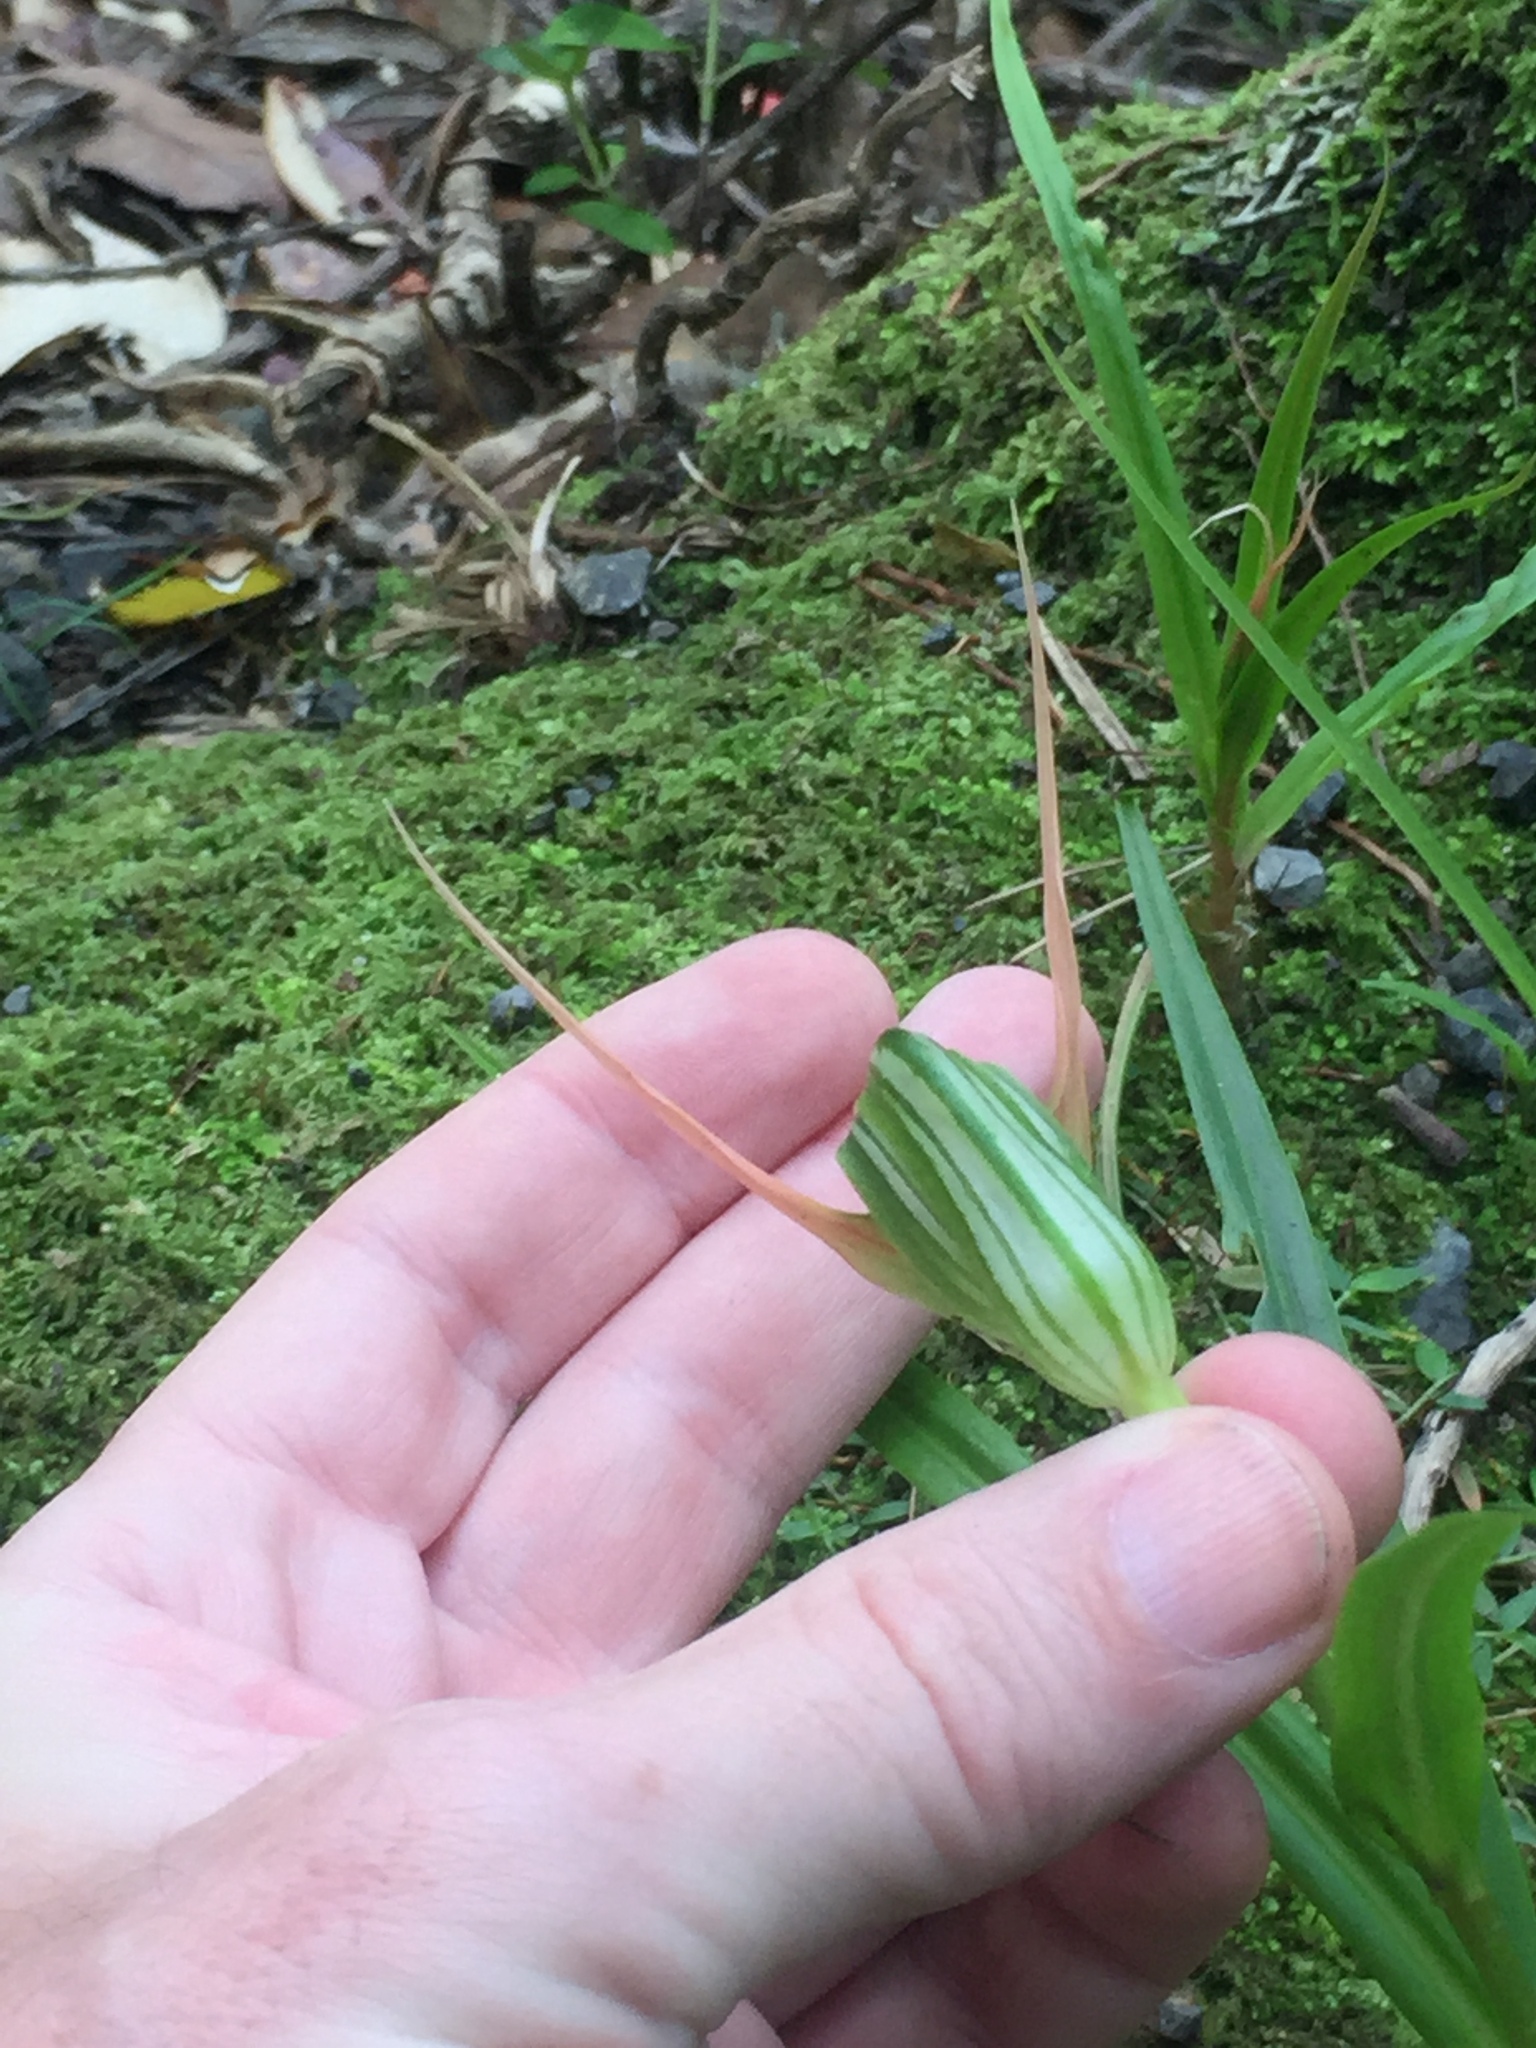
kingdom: Plantae
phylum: Tracheophyta
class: Liliopsida
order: Asparagales
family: Orchidaceae
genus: Pterostylis
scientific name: Pterostylis banksii
